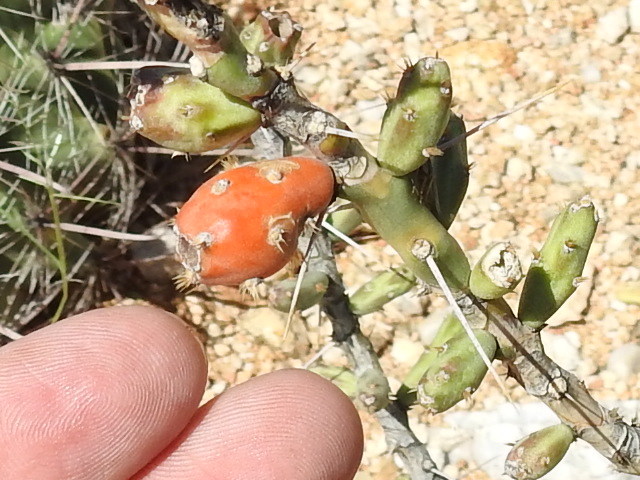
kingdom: Plantae
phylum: Tracheophyta
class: Magnoliopsida
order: Caryophyllales
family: Cactaceae
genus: Cylindropuntia
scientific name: Cylindropuntia leptocaulis
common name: Christmas cactus
